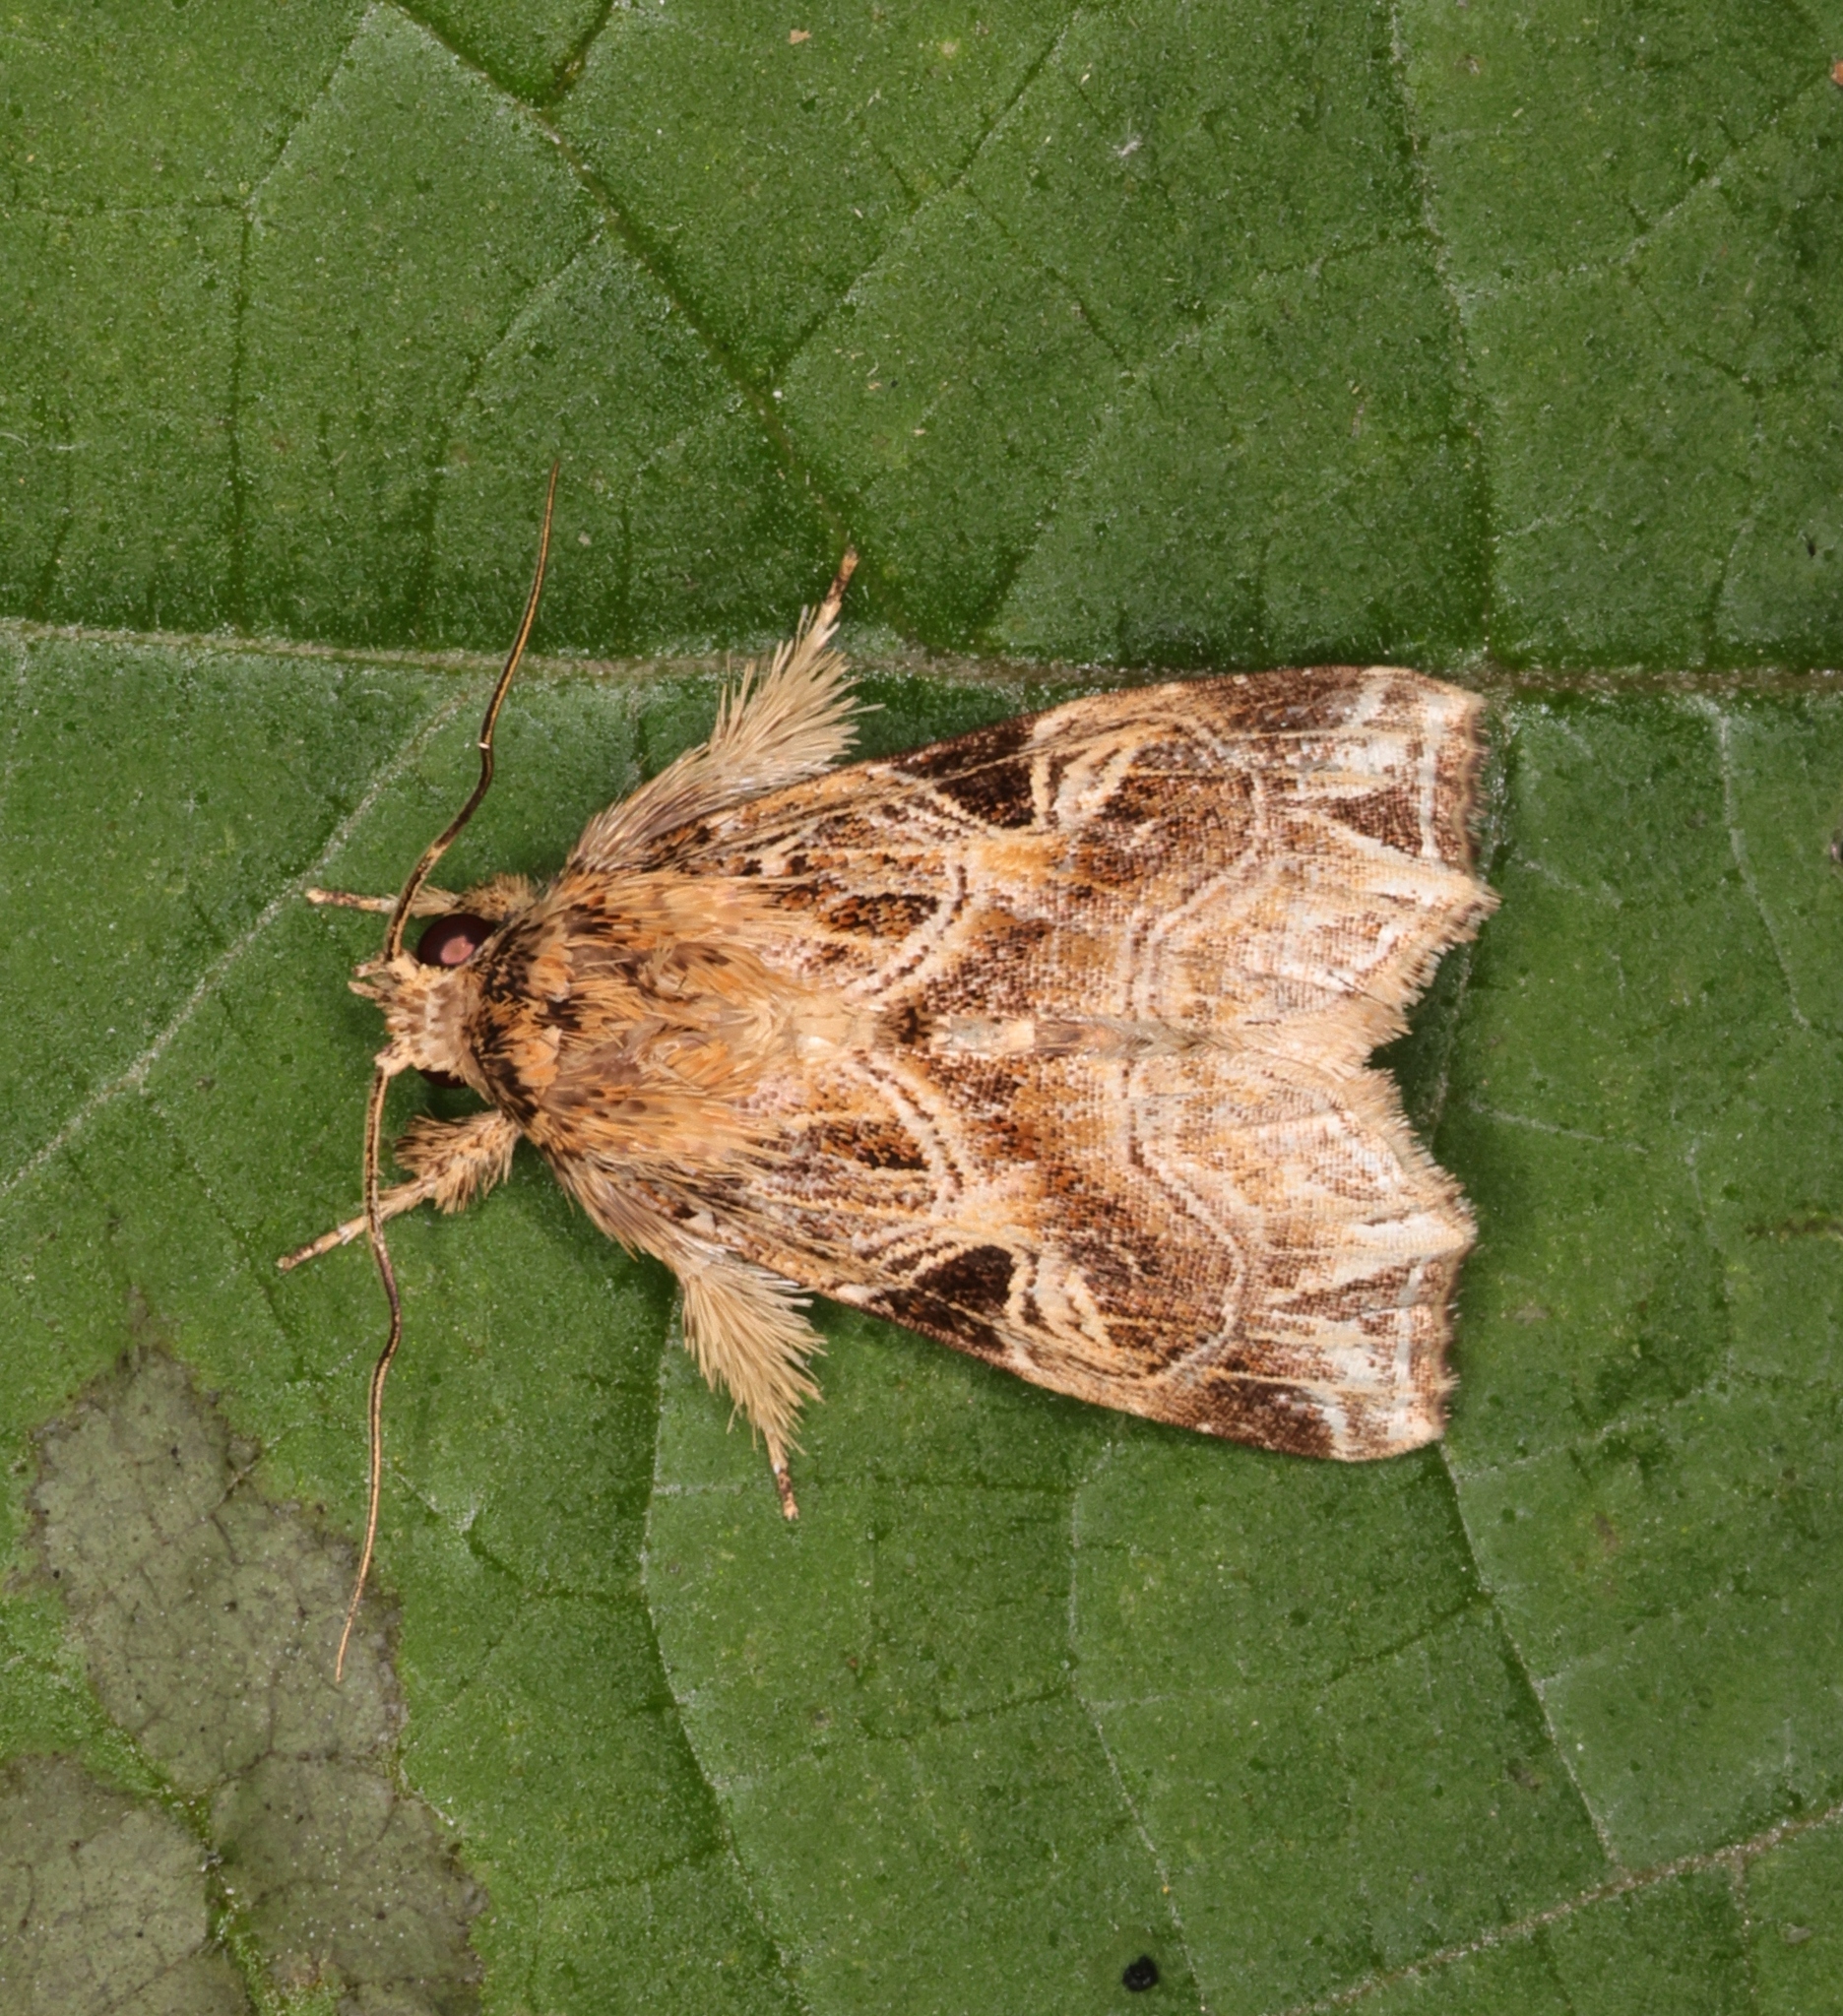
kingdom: Animalia
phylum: Arthropoda
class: Insecta
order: Lepidoptera
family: Noctuidae
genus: Callopistria
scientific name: Callopistria flavitincta
